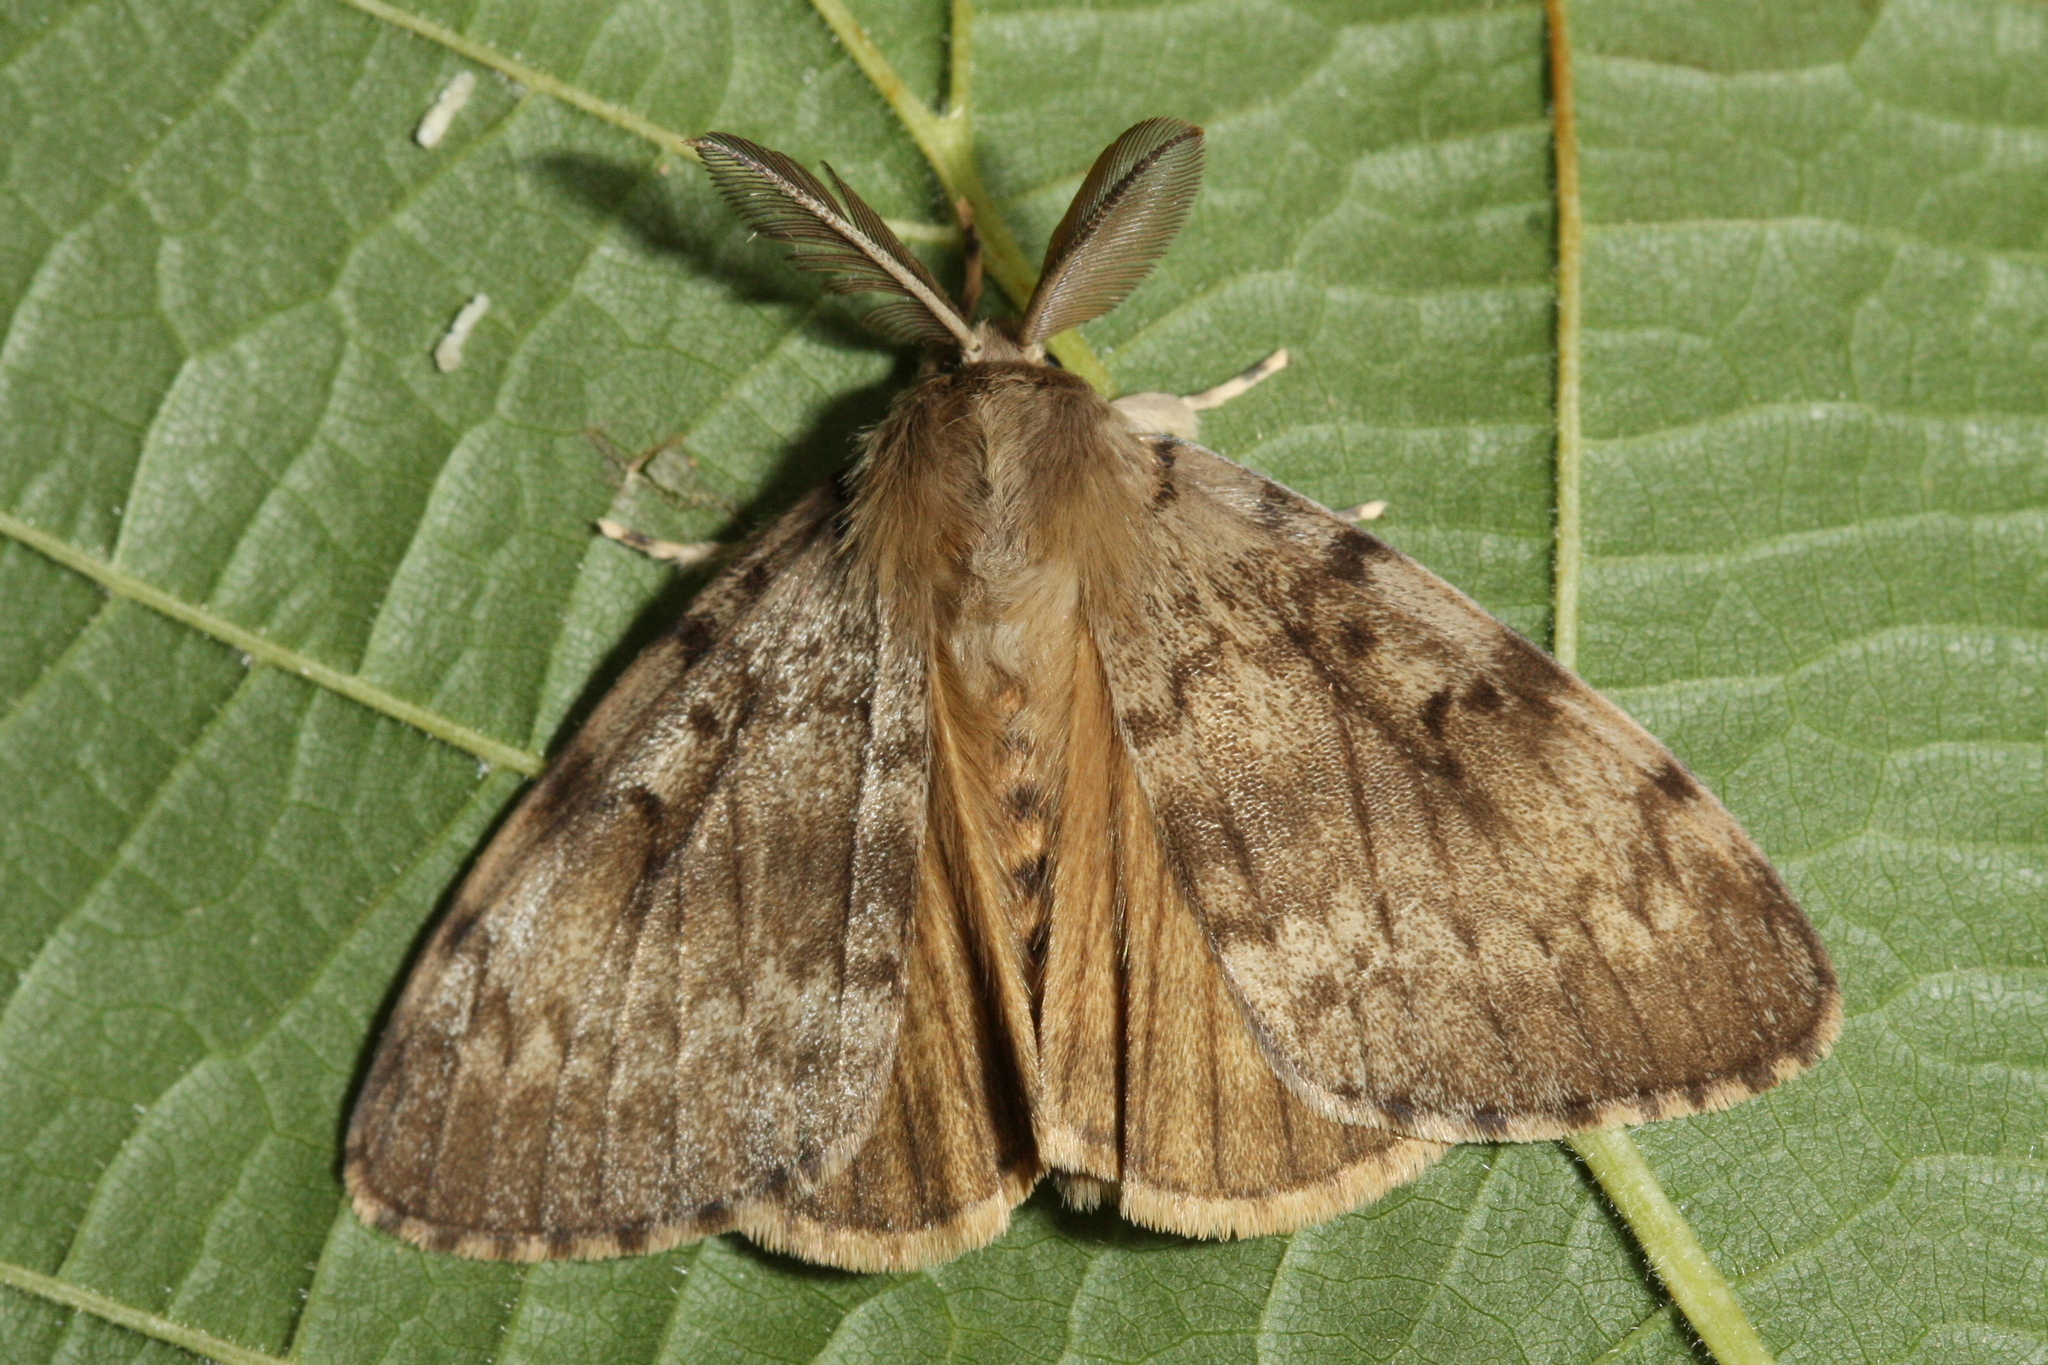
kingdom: Animalia
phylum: Arthropoda
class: Insecta
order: Lepidoptera
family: Erebidae
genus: Lymantria
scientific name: Lymantria dispar
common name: Gypsy moth
